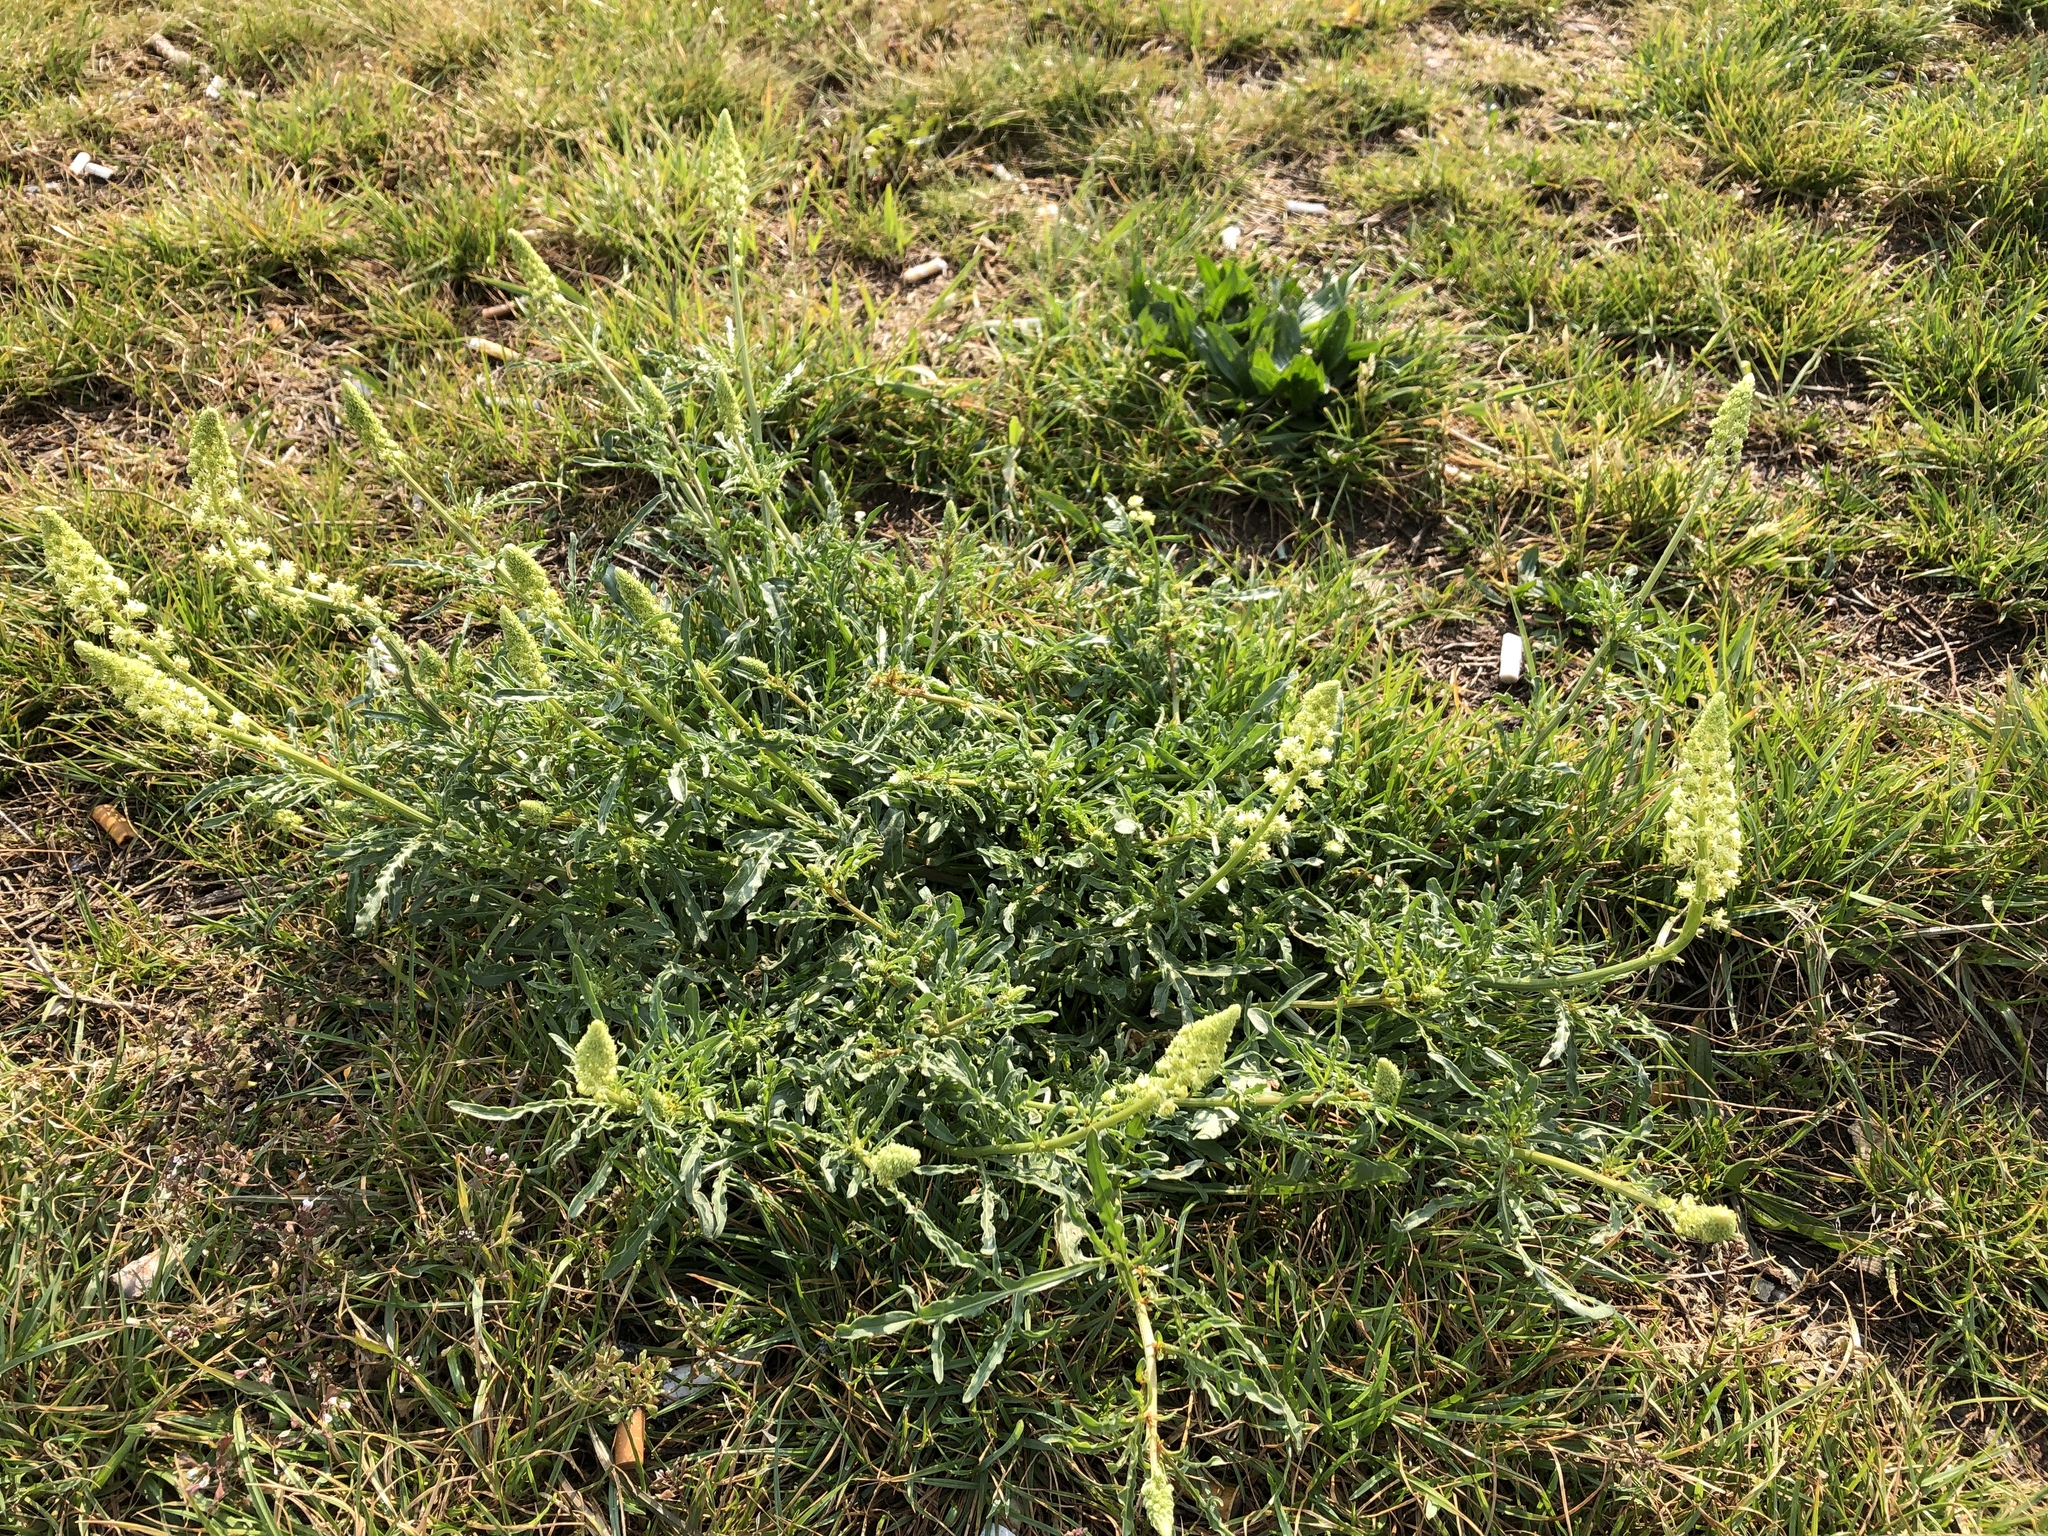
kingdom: Plantae
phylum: Tracheophyta
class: Magnoliopsida
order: Brassicales
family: Resedaceae
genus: Reseda
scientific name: Reseda lutea
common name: Wild mignonette
